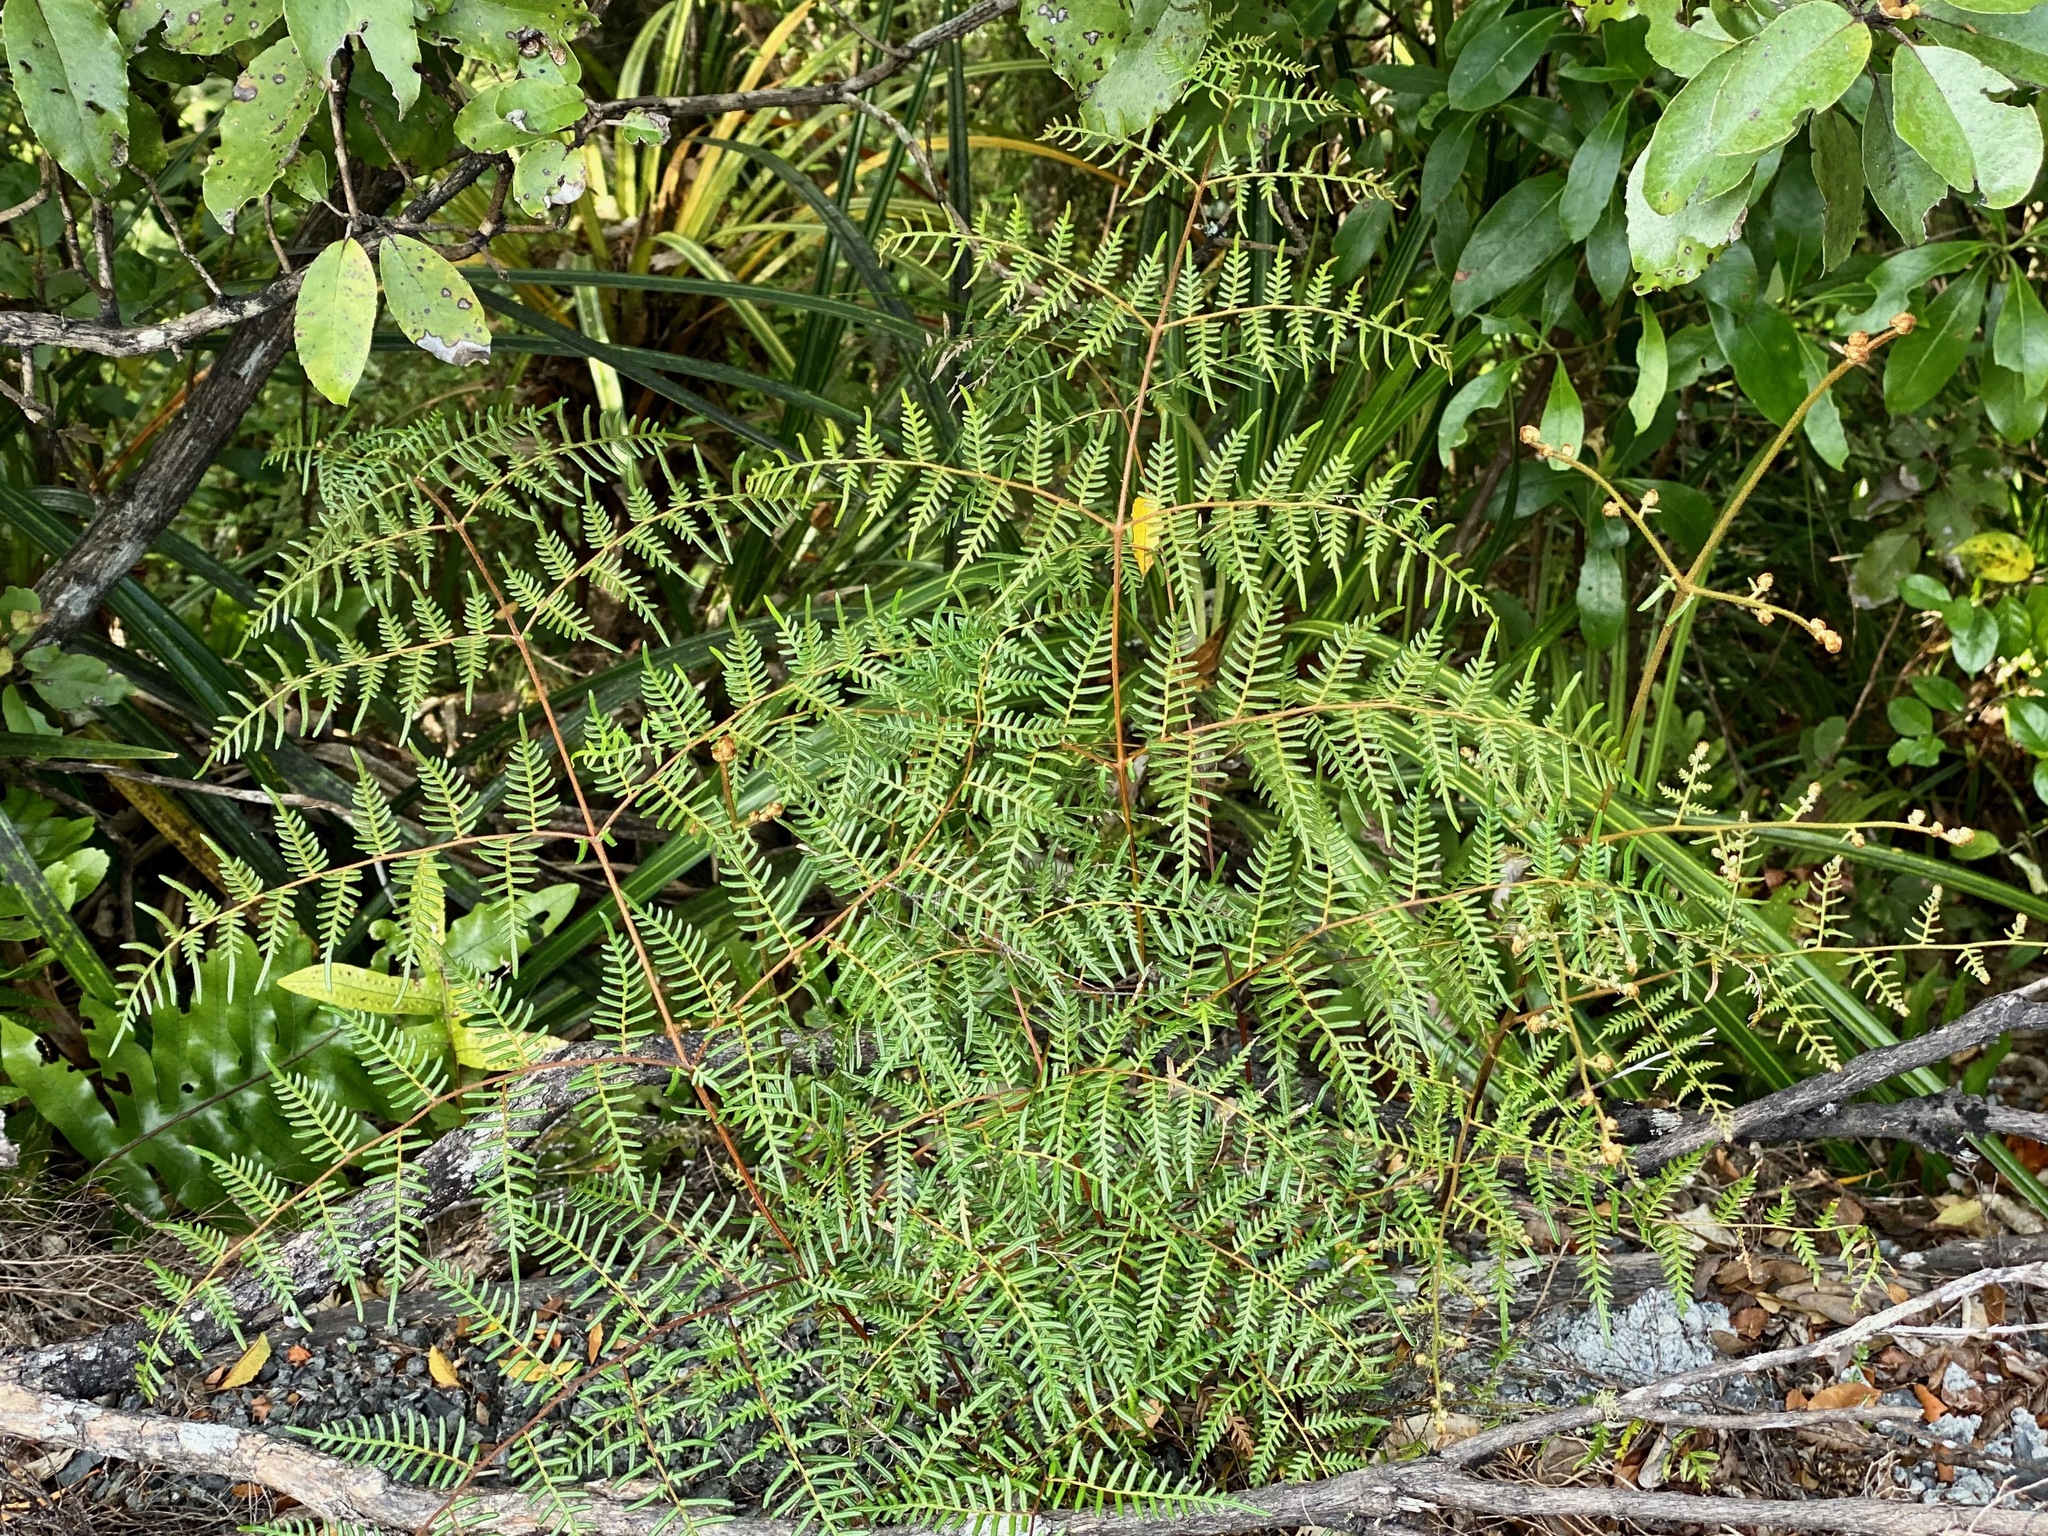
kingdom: Plantae
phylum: Tracheophyta
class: Polypodiopsida
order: Polypodiales
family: Dennstaedtiaceae
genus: Pteridium
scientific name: Pteridium esculentum
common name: Bracken fern
